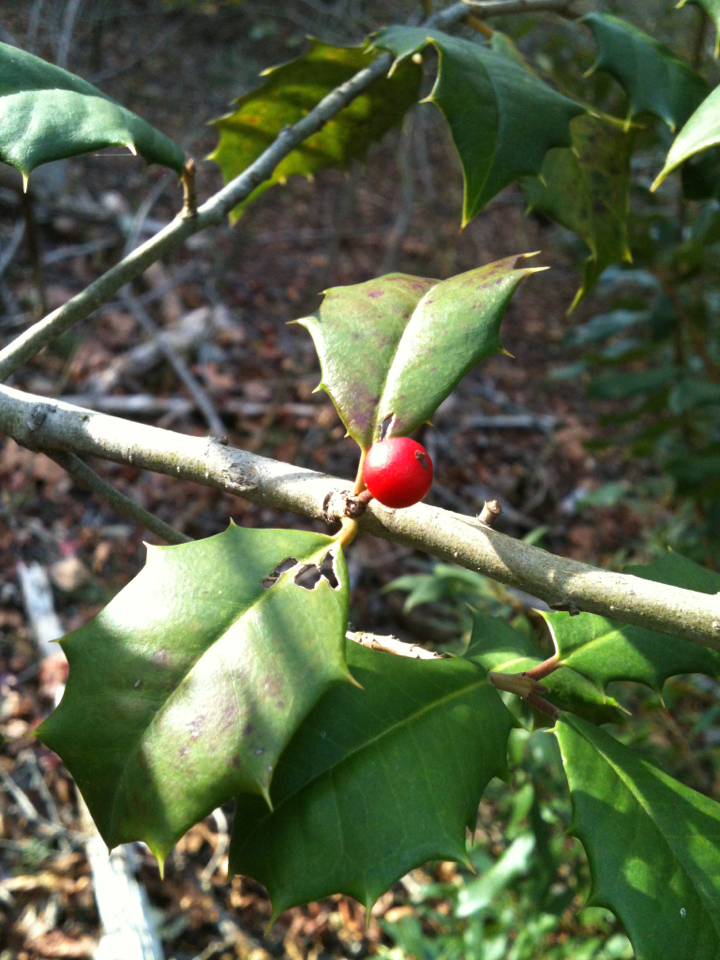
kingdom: Plantae
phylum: Tracheophyta
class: Magnoliopsida
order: Aquifoliales
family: Aquifoliaceae
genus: Ilex
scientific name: Ilex opaca
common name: American holly
